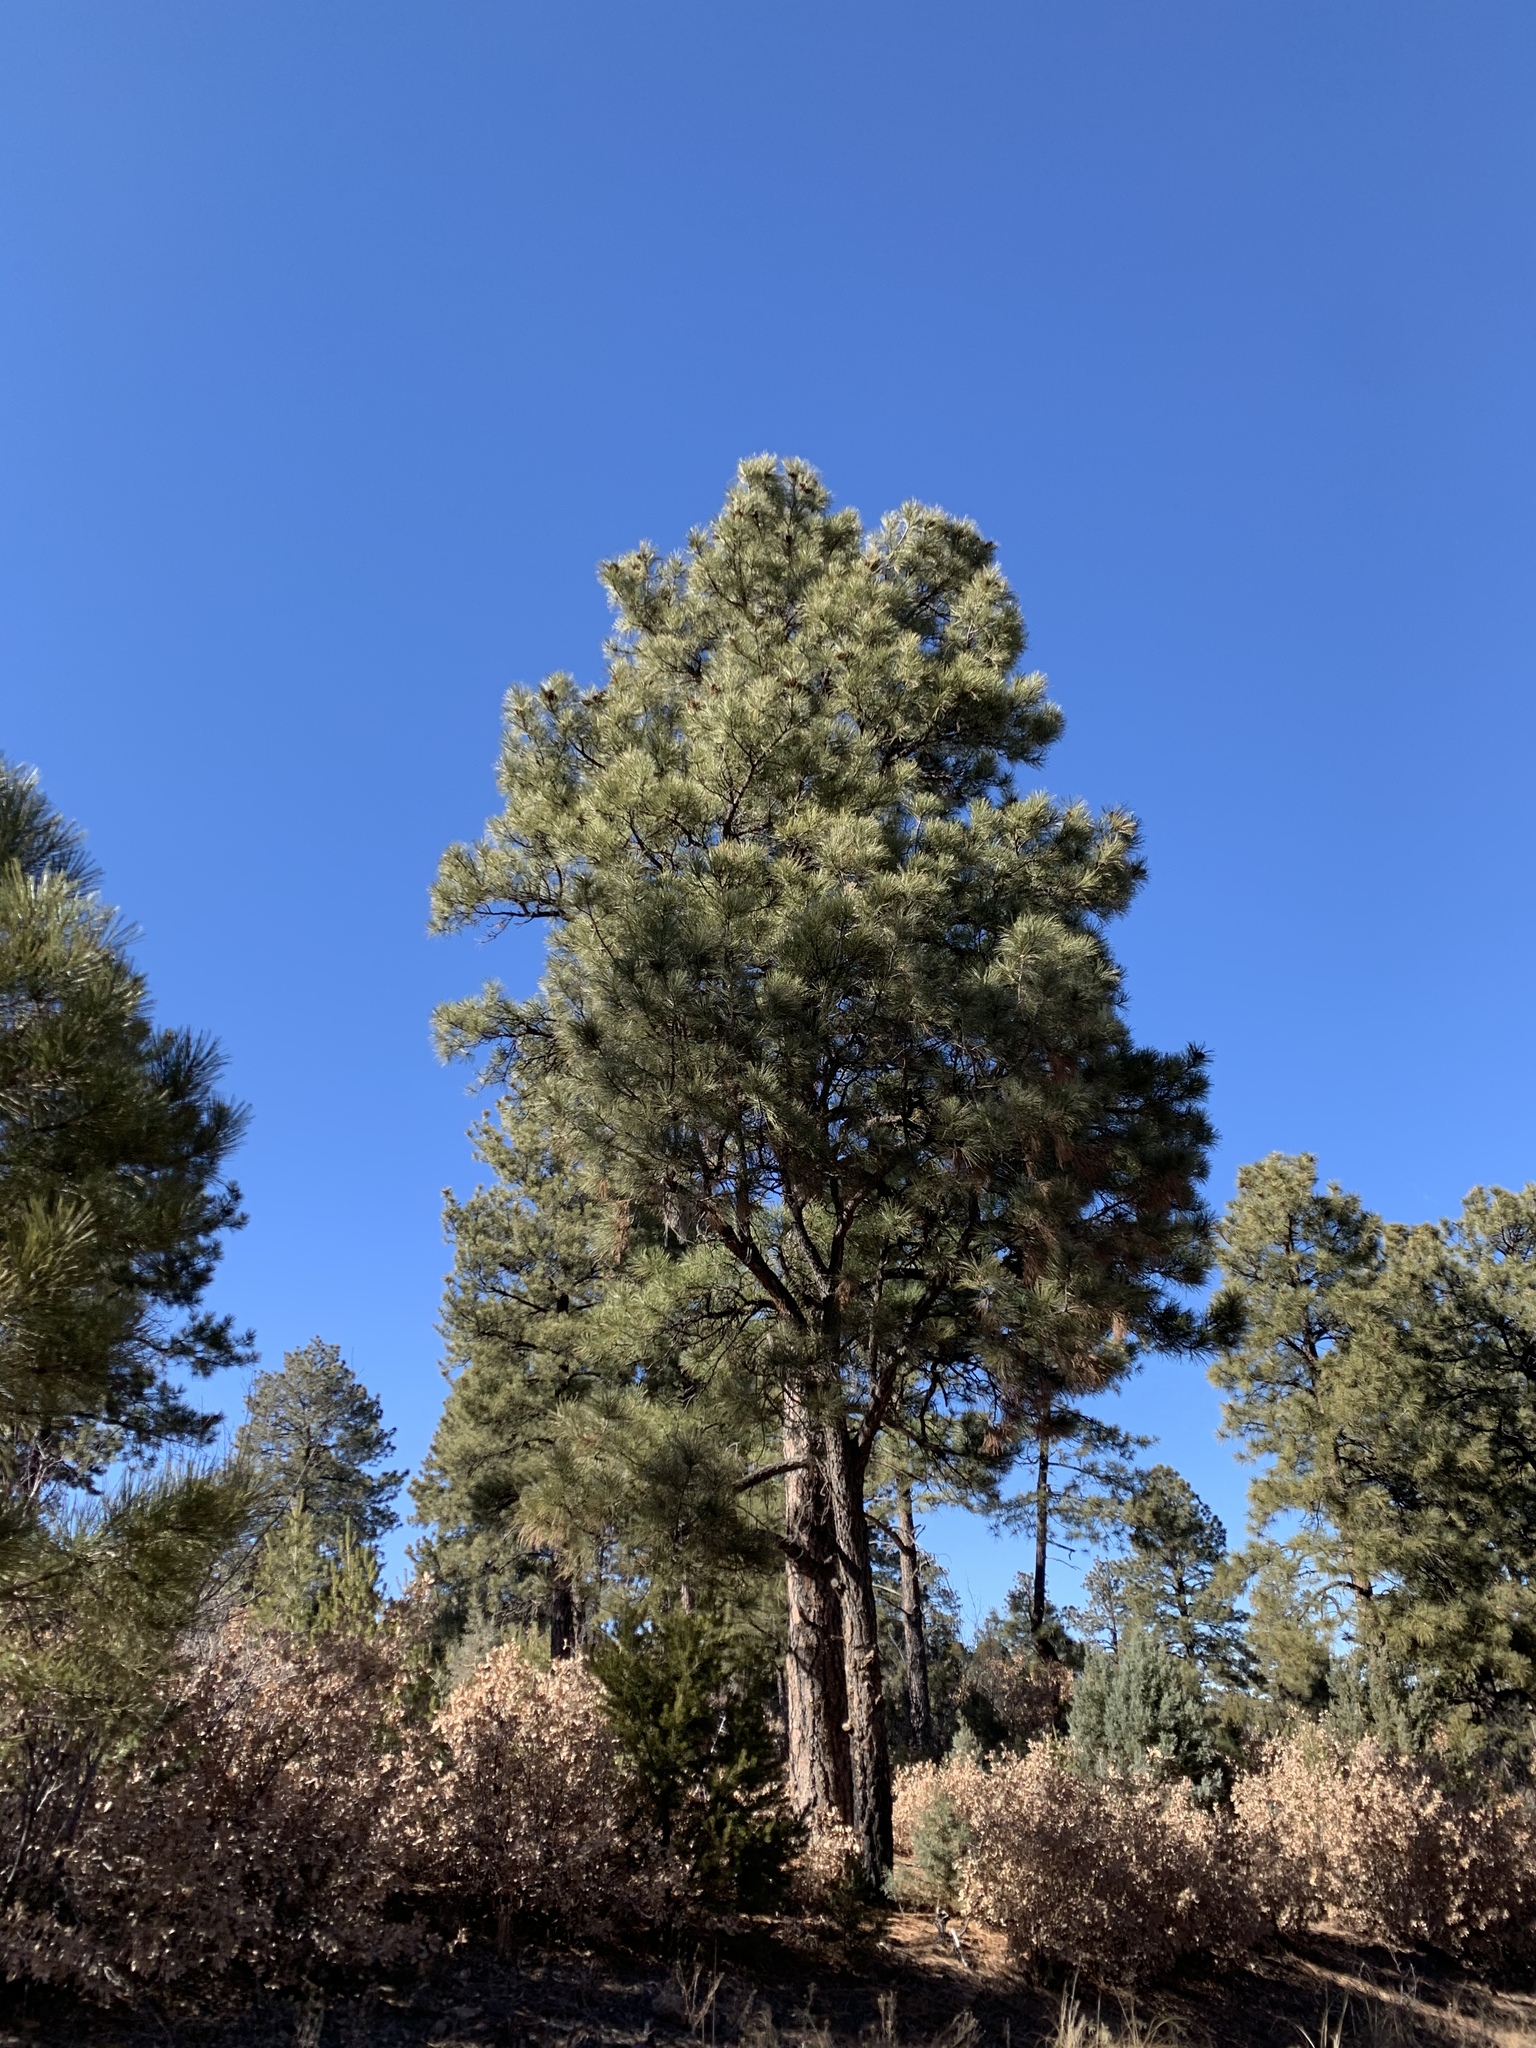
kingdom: Plantae
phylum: Tracheophyta
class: Pinopsida
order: Pinales
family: Pinaceae
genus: Pinus
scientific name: Pinus ponderosa
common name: Western yellow-pine
